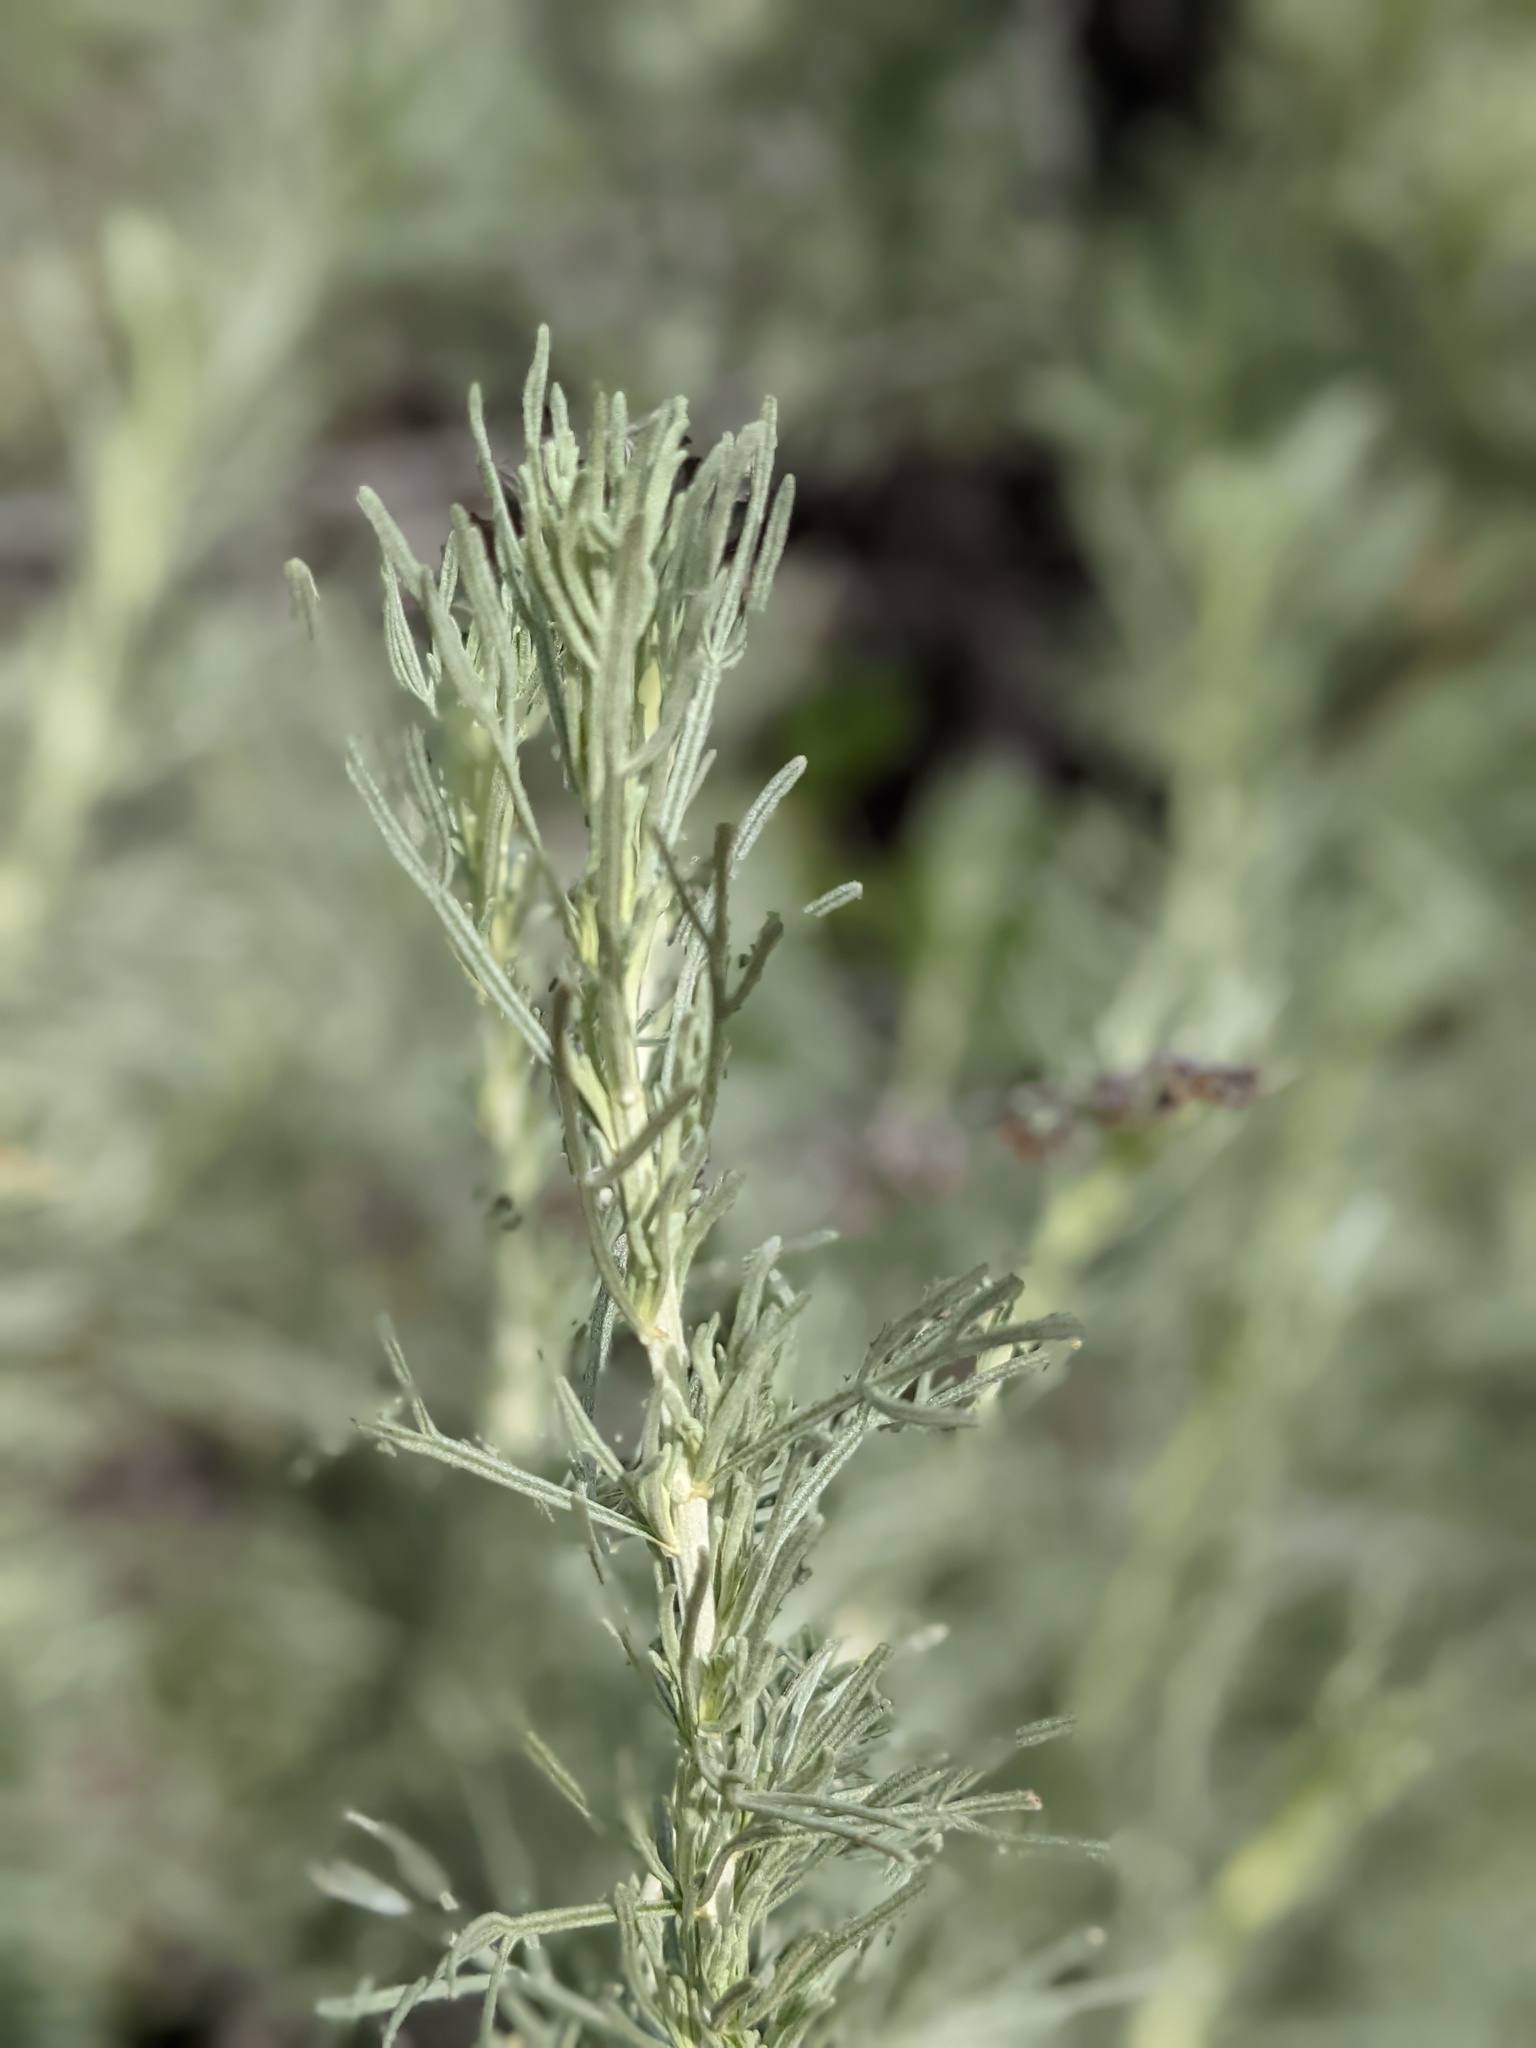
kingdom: Plantae
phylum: Tracheophyta
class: Magnoliopsida
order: Asterales
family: Asteraceae
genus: Artemisia
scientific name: Artemisia californica
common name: California sagebrush
